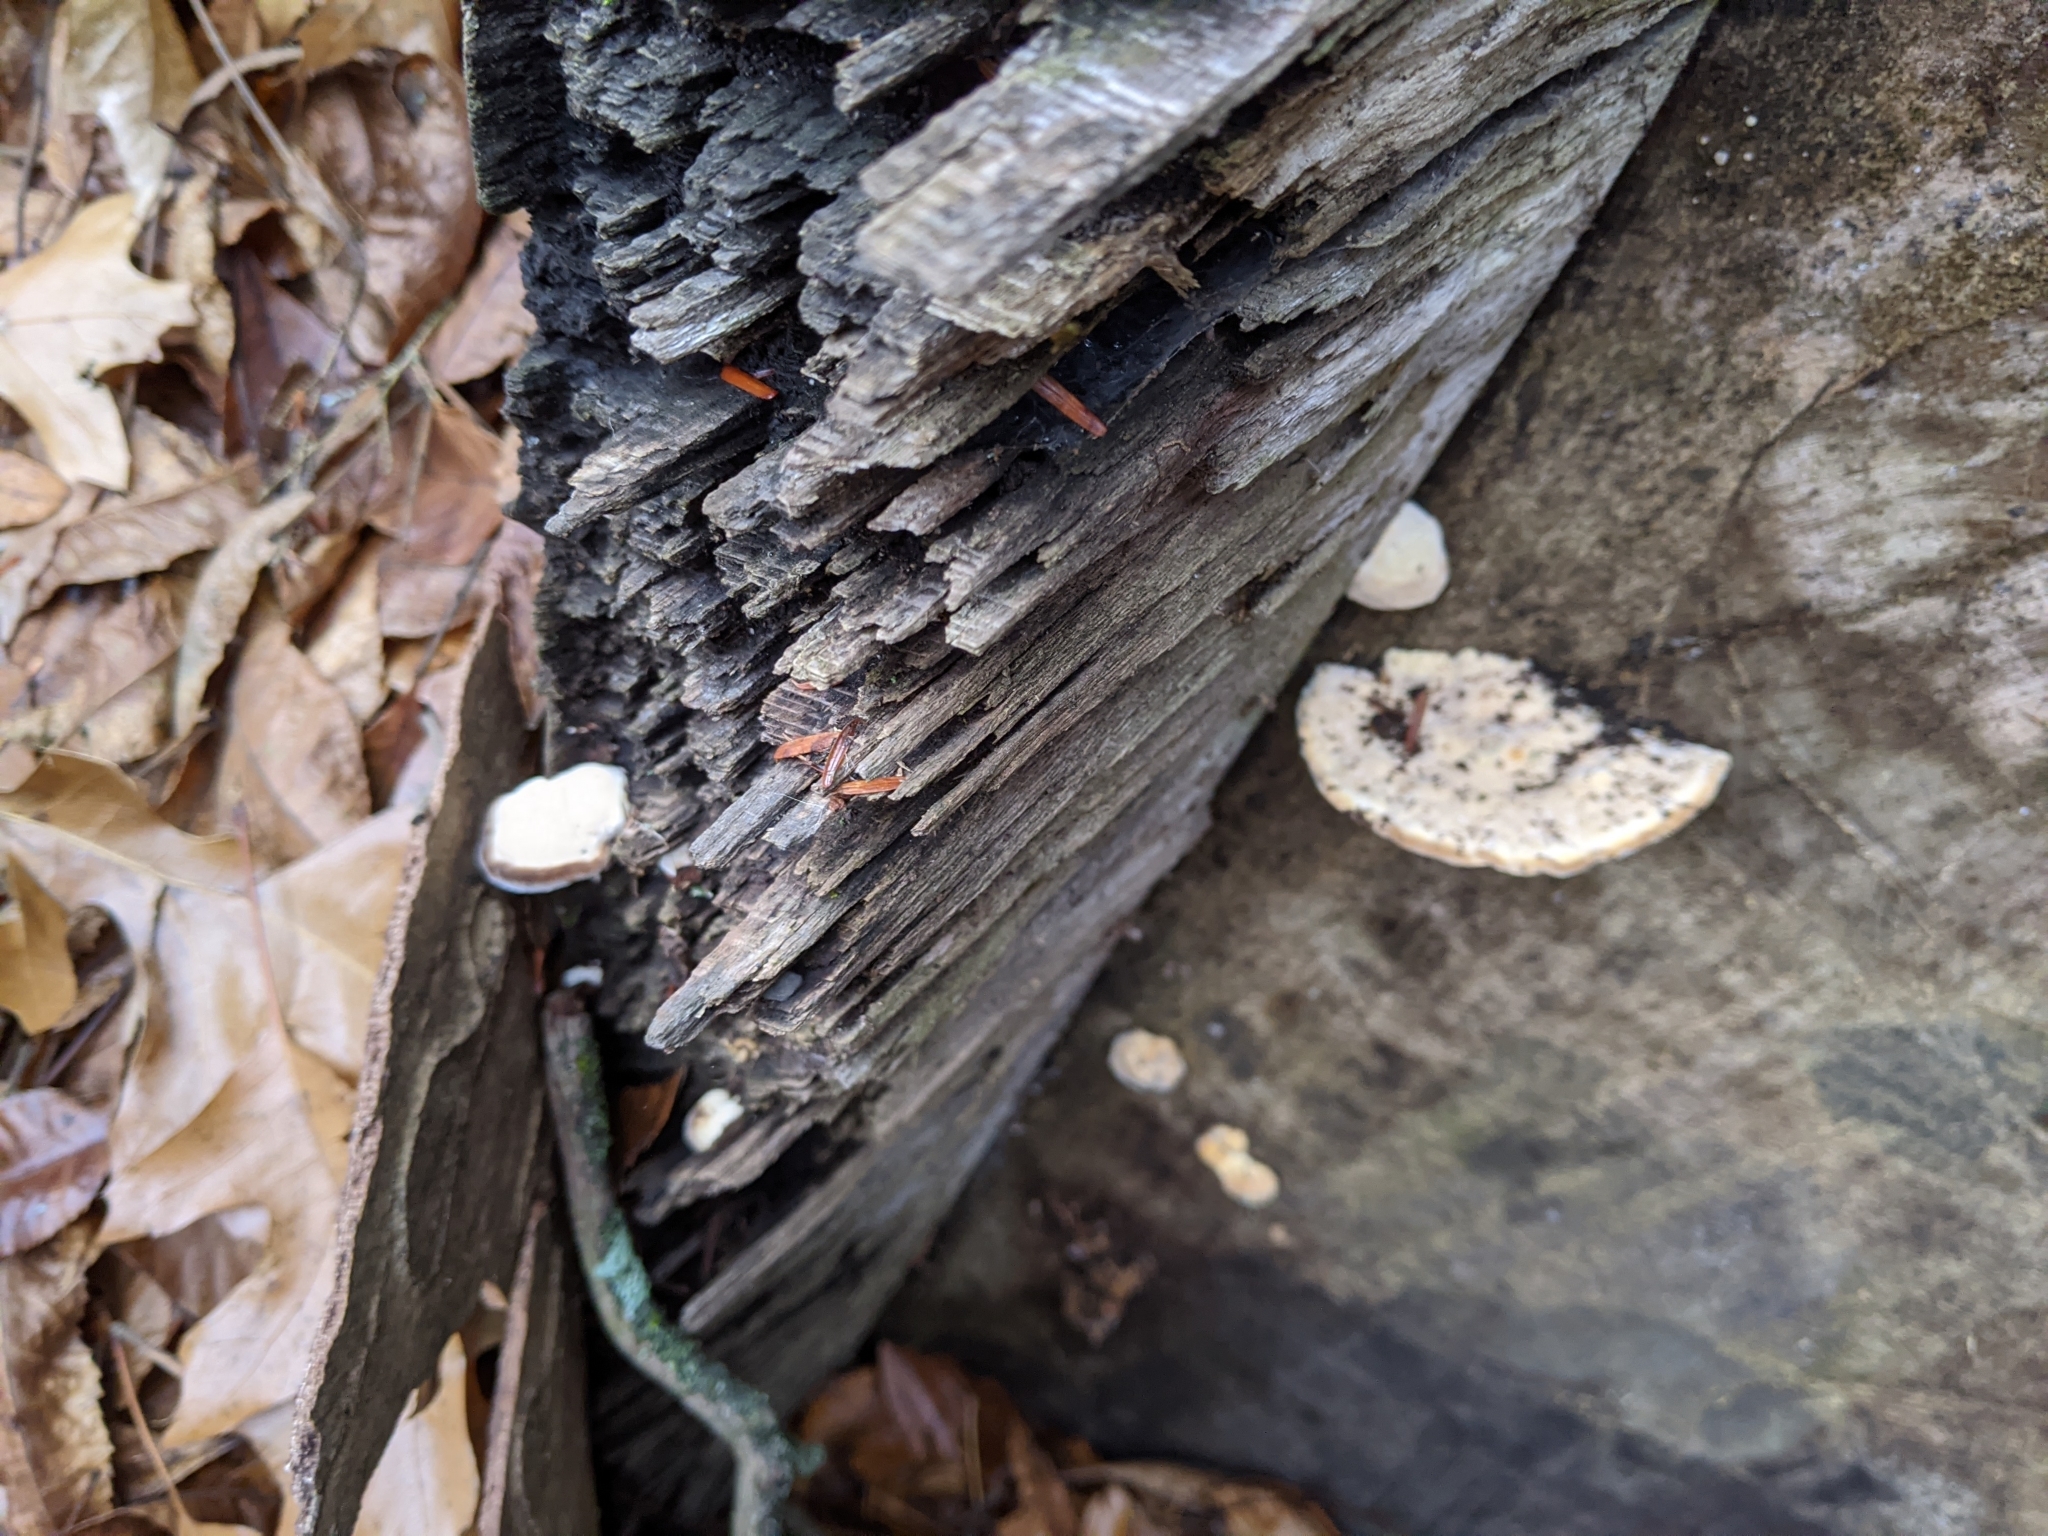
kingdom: Fungi
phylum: Basidiomycota
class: Agaricomycetes
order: Polyporales
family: Polyporaceae
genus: Trametes
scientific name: Trametes gibbosa
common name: Lumpy bracket
